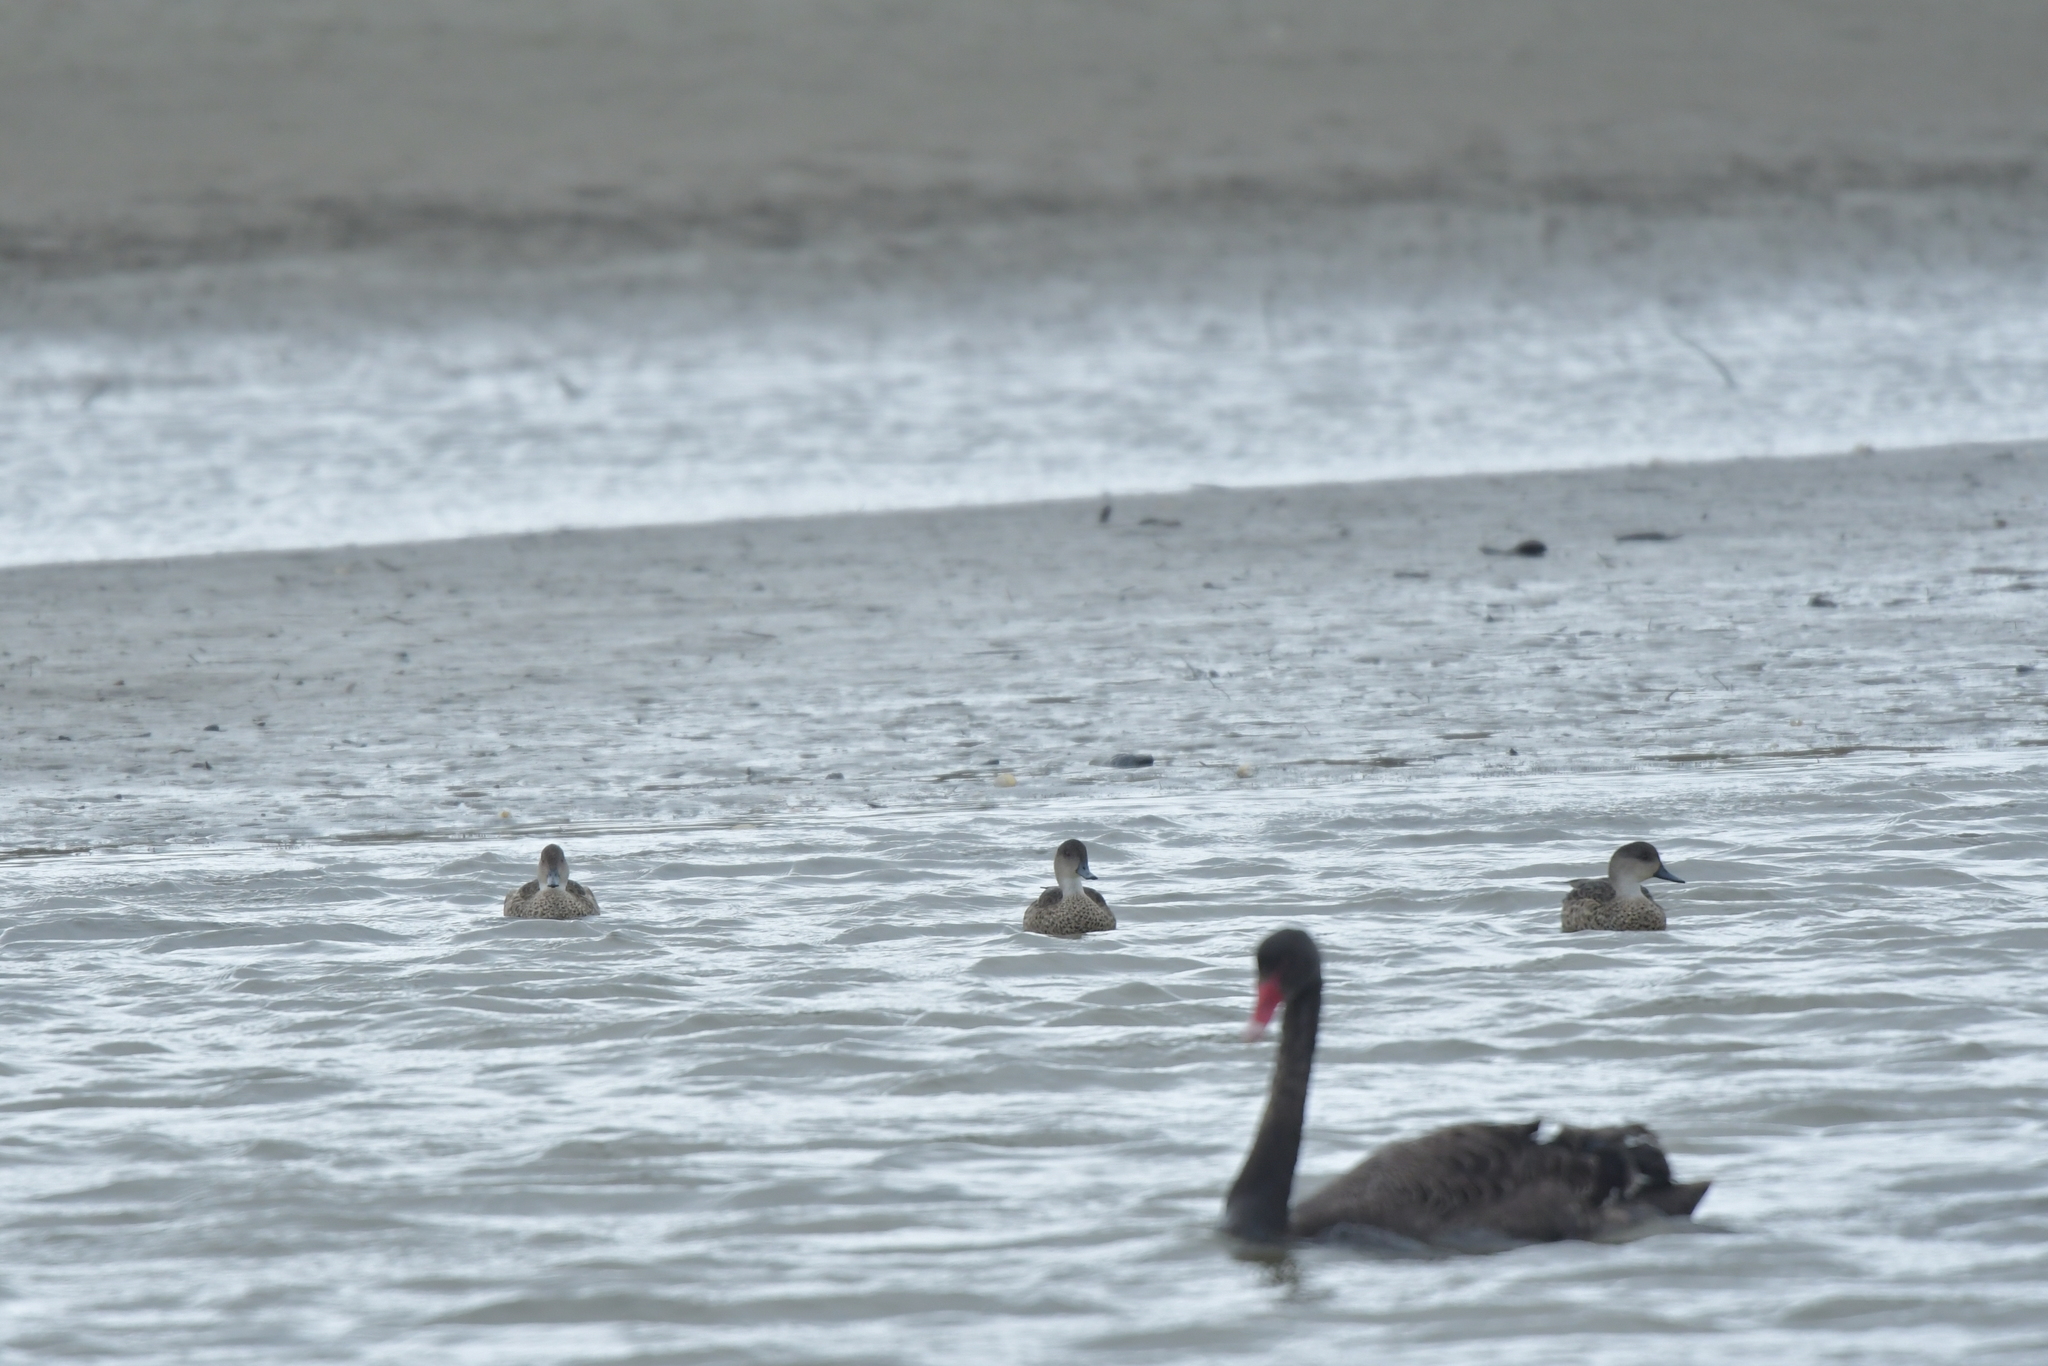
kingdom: Animalia
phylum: Chordata
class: Aves
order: Anseriformes
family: Anatidae
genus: Anas
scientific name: Anas gracilis
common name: Grey teal
